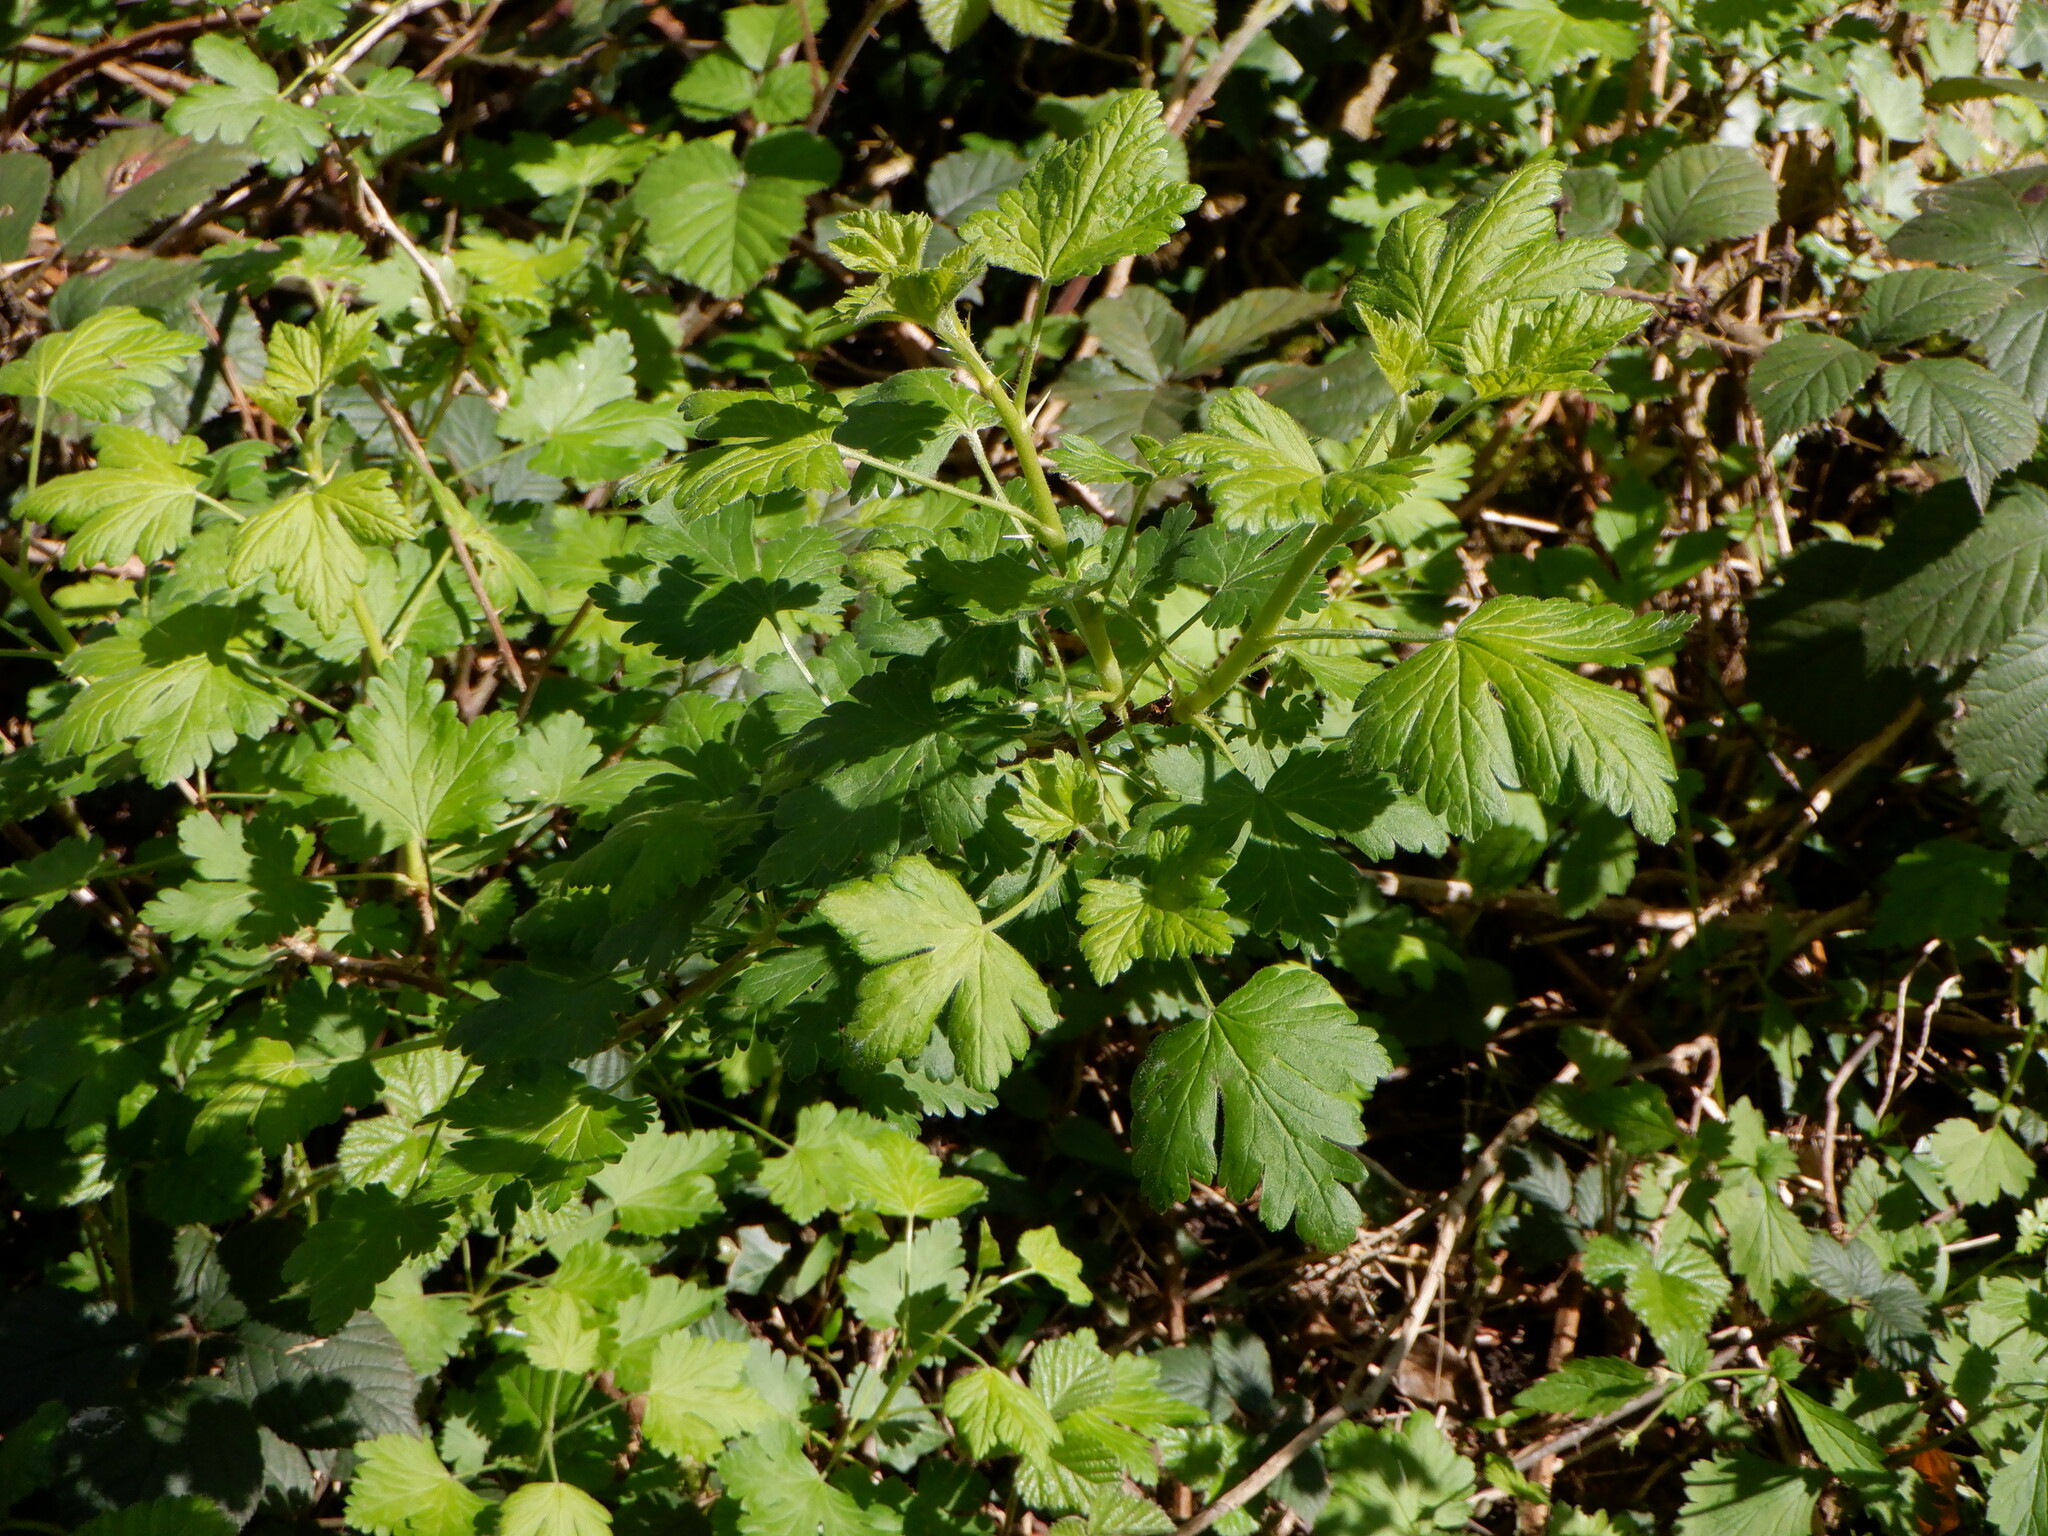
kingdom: Plantae
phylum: Tracheophyta
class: Magnoliopsida
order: Saxifragales
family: Grossulariaceae
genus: Ribes
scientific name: Ribes uva-crispa
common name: Gooseberry
